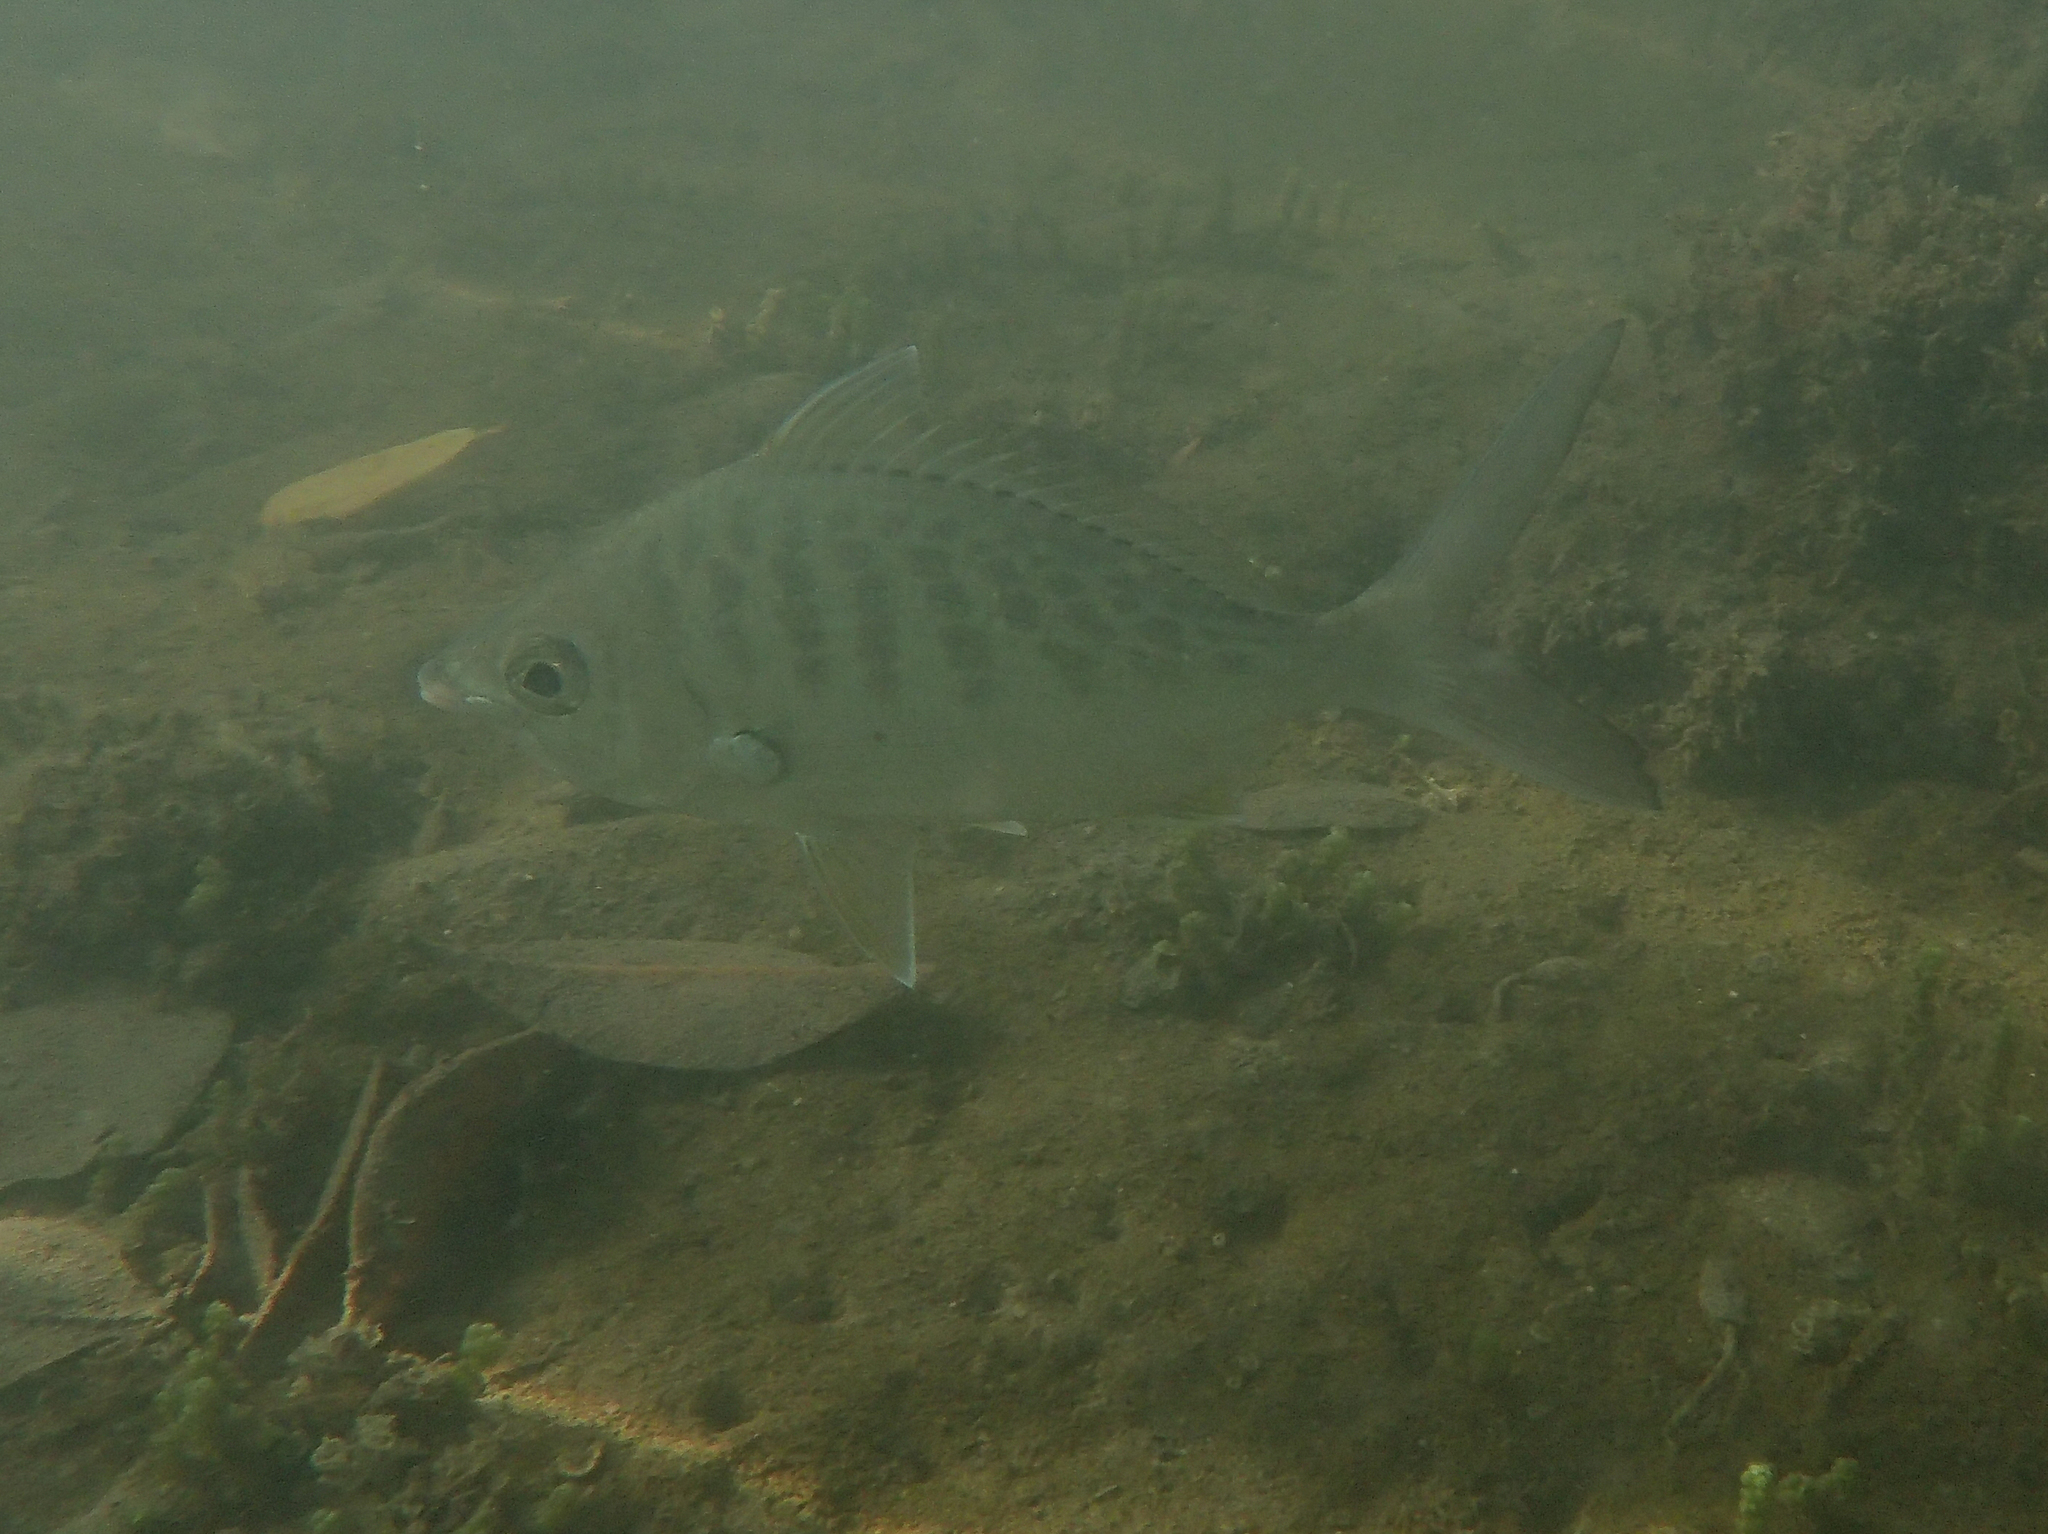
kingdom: Animalia
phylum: Chordata
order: Perciformes
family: Gerreidae
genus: Gerres
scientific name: Gerres simillimus
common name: Yellow fin mojarra
